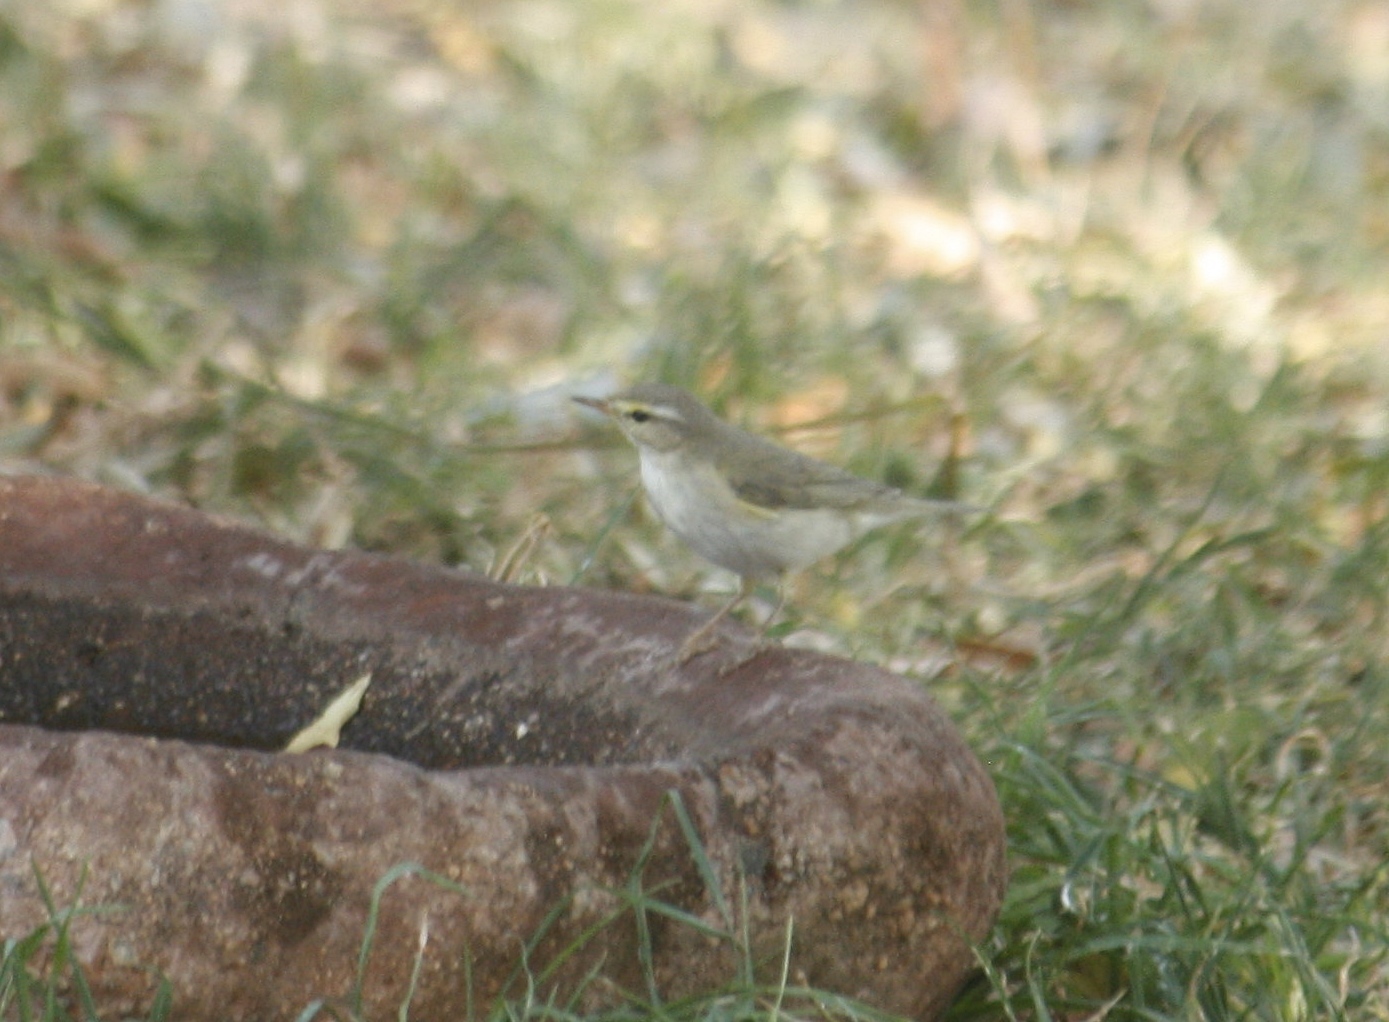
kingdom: Animalia
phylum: Chordata
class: Aves
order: Passeriformes
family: Phylloscopidae
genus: Phylloscopus
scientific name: Phylloscopus trochilus
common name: Willow warbler
